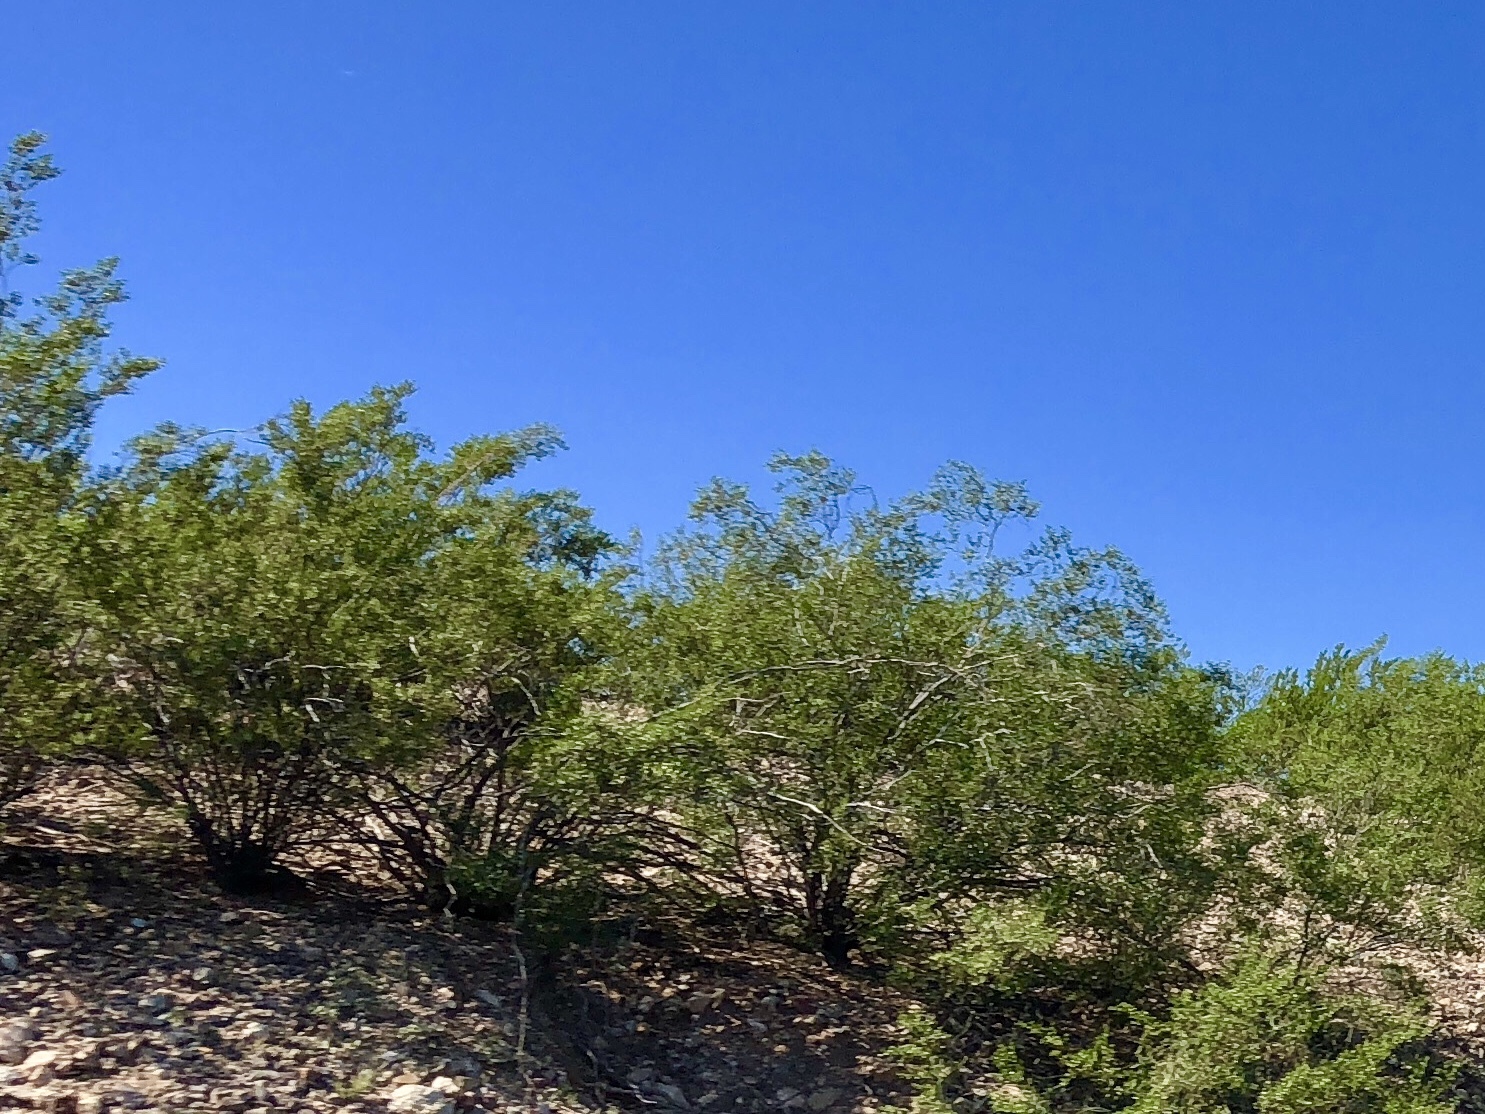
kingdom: Plantae
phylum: Tracheophyta
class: Magnoliopsida
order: Zygophyllales
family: Zygophyllaceae
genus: Larrea
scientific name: Larrea tridentata
